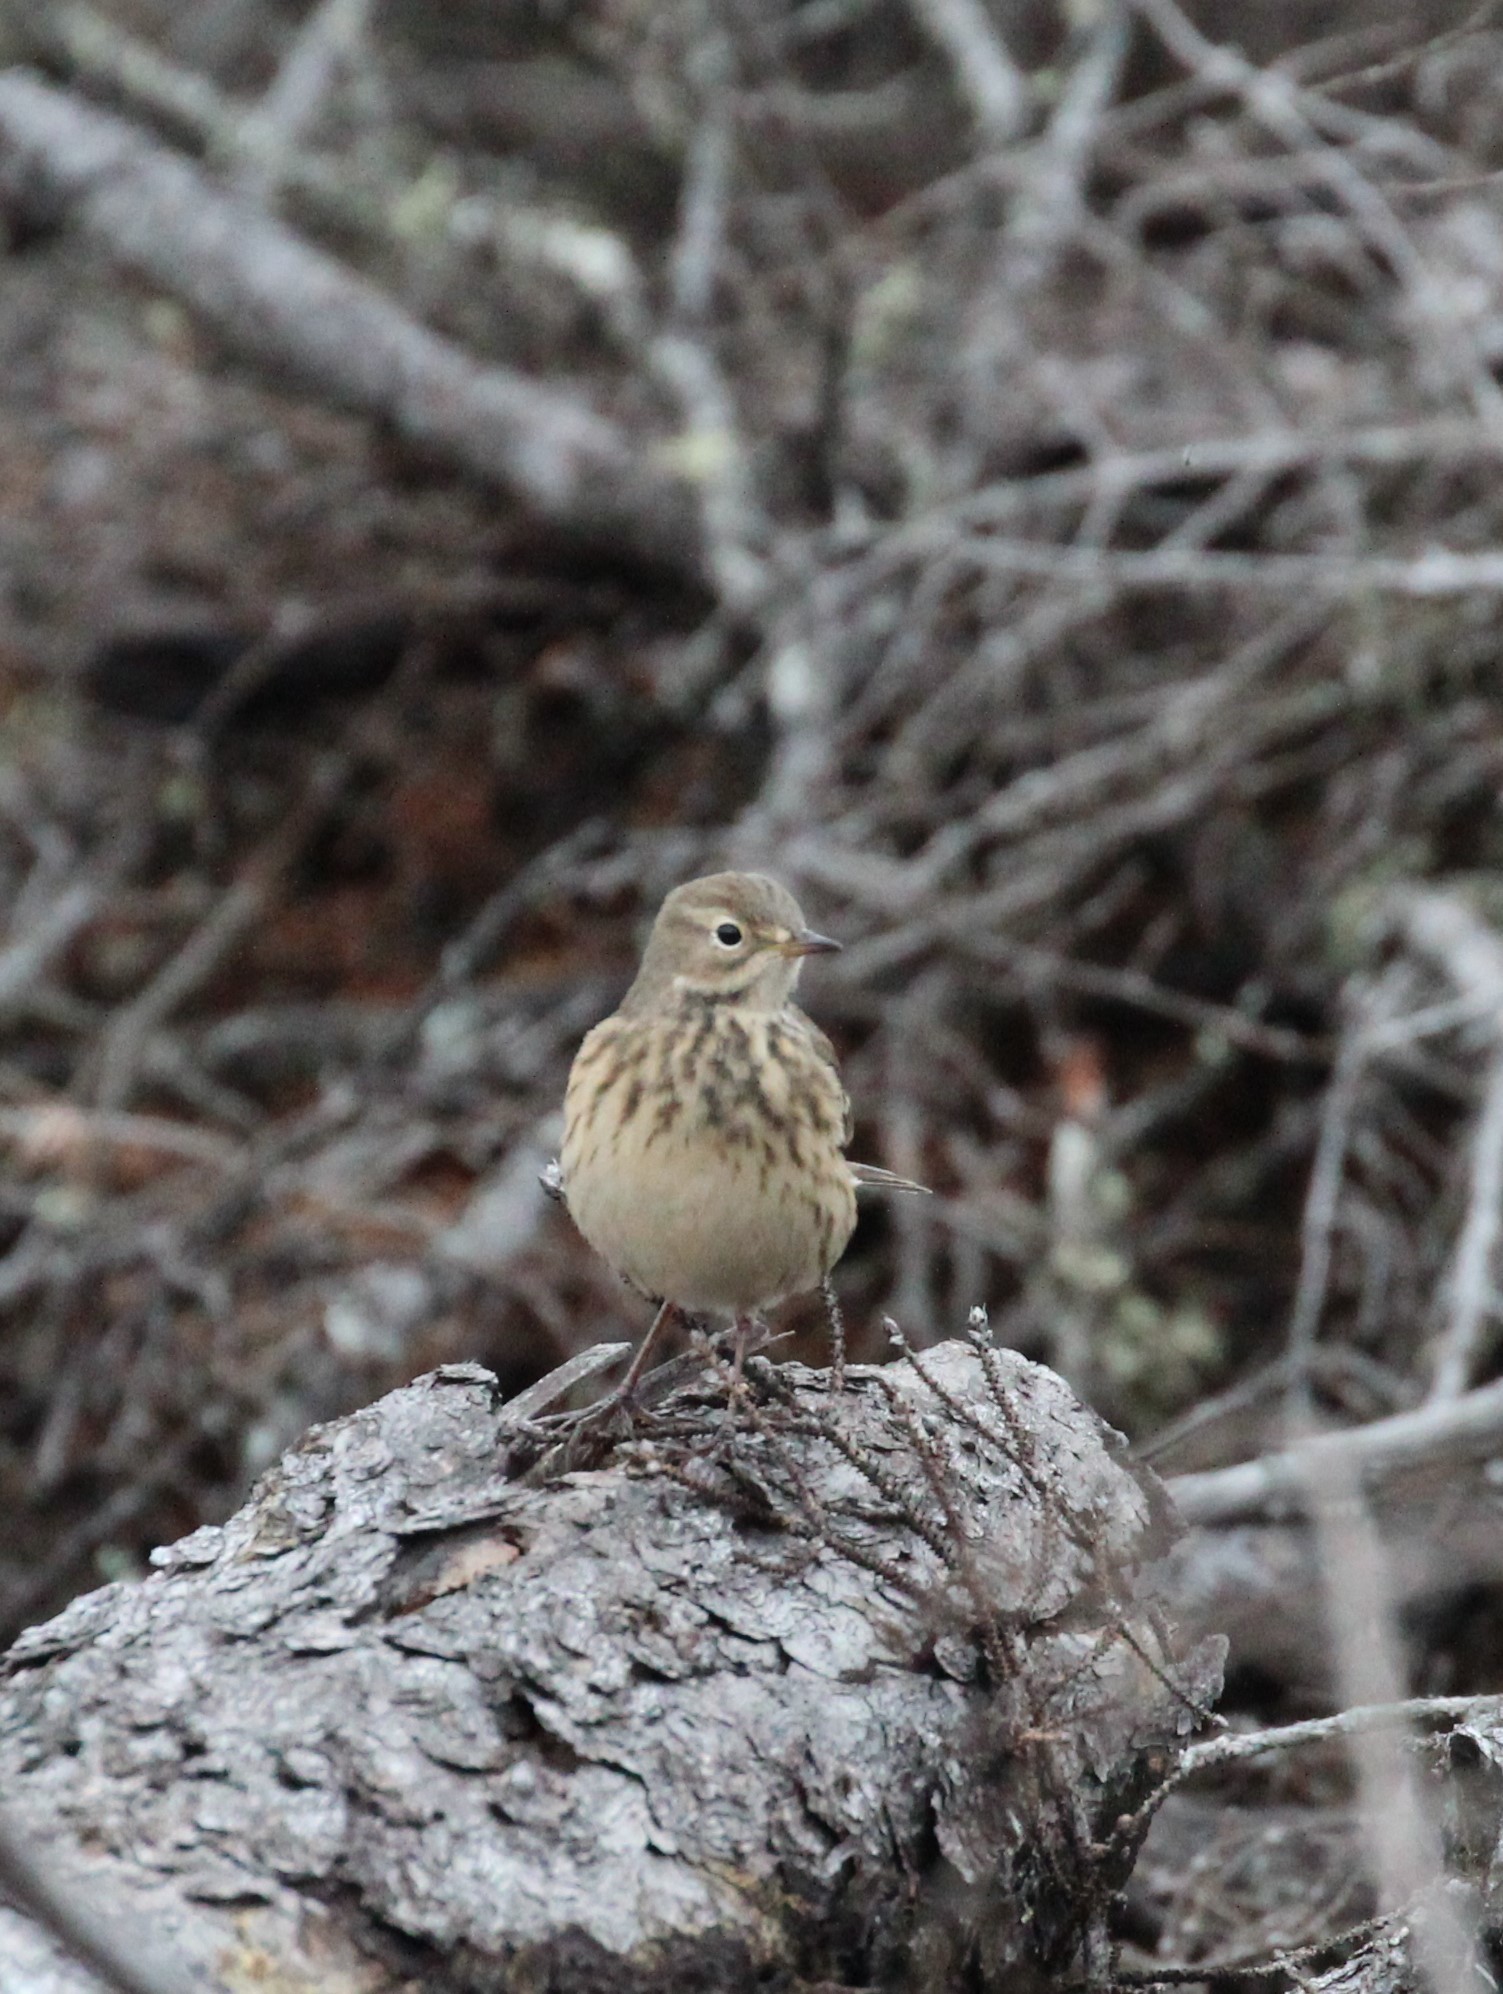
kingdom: Animalia
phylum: Chordata
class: Aves
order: Passeriformes
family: Motacillidae
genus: Anthus
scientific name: Anthus rubescens
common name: Buff-bellied pipit
